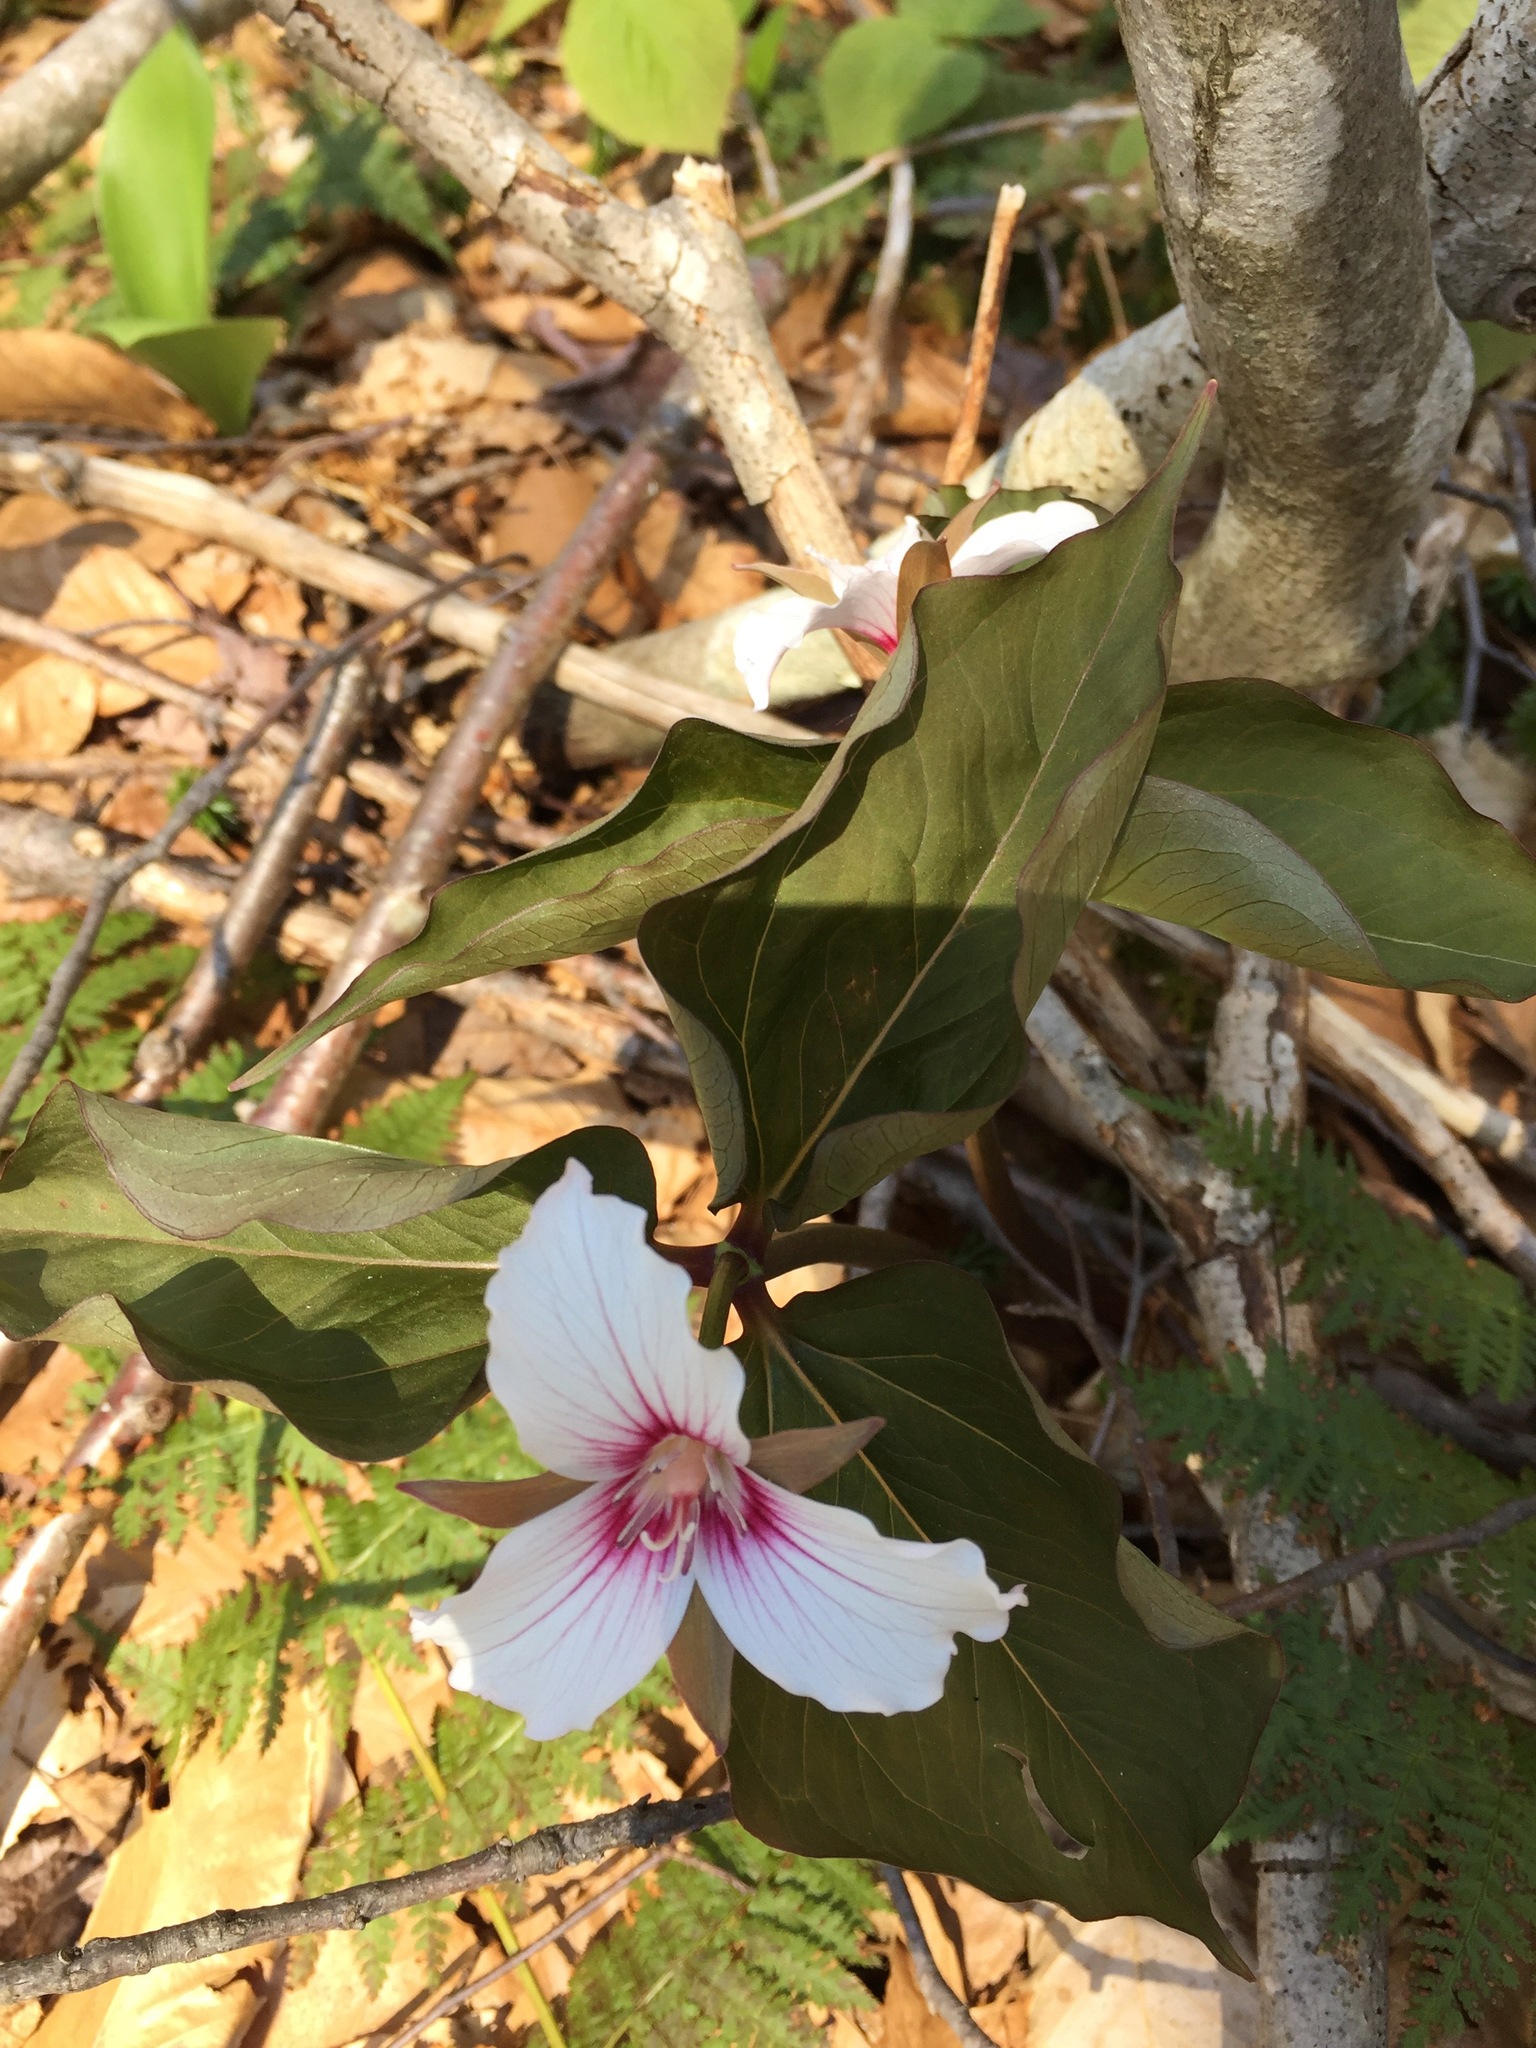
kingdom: Plantae
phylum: Tracheophyta
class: Liliopsida
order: Liliales
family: Melanthiaceae
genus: Trillium
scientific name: Trillium undulatum
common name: Paint trillium
